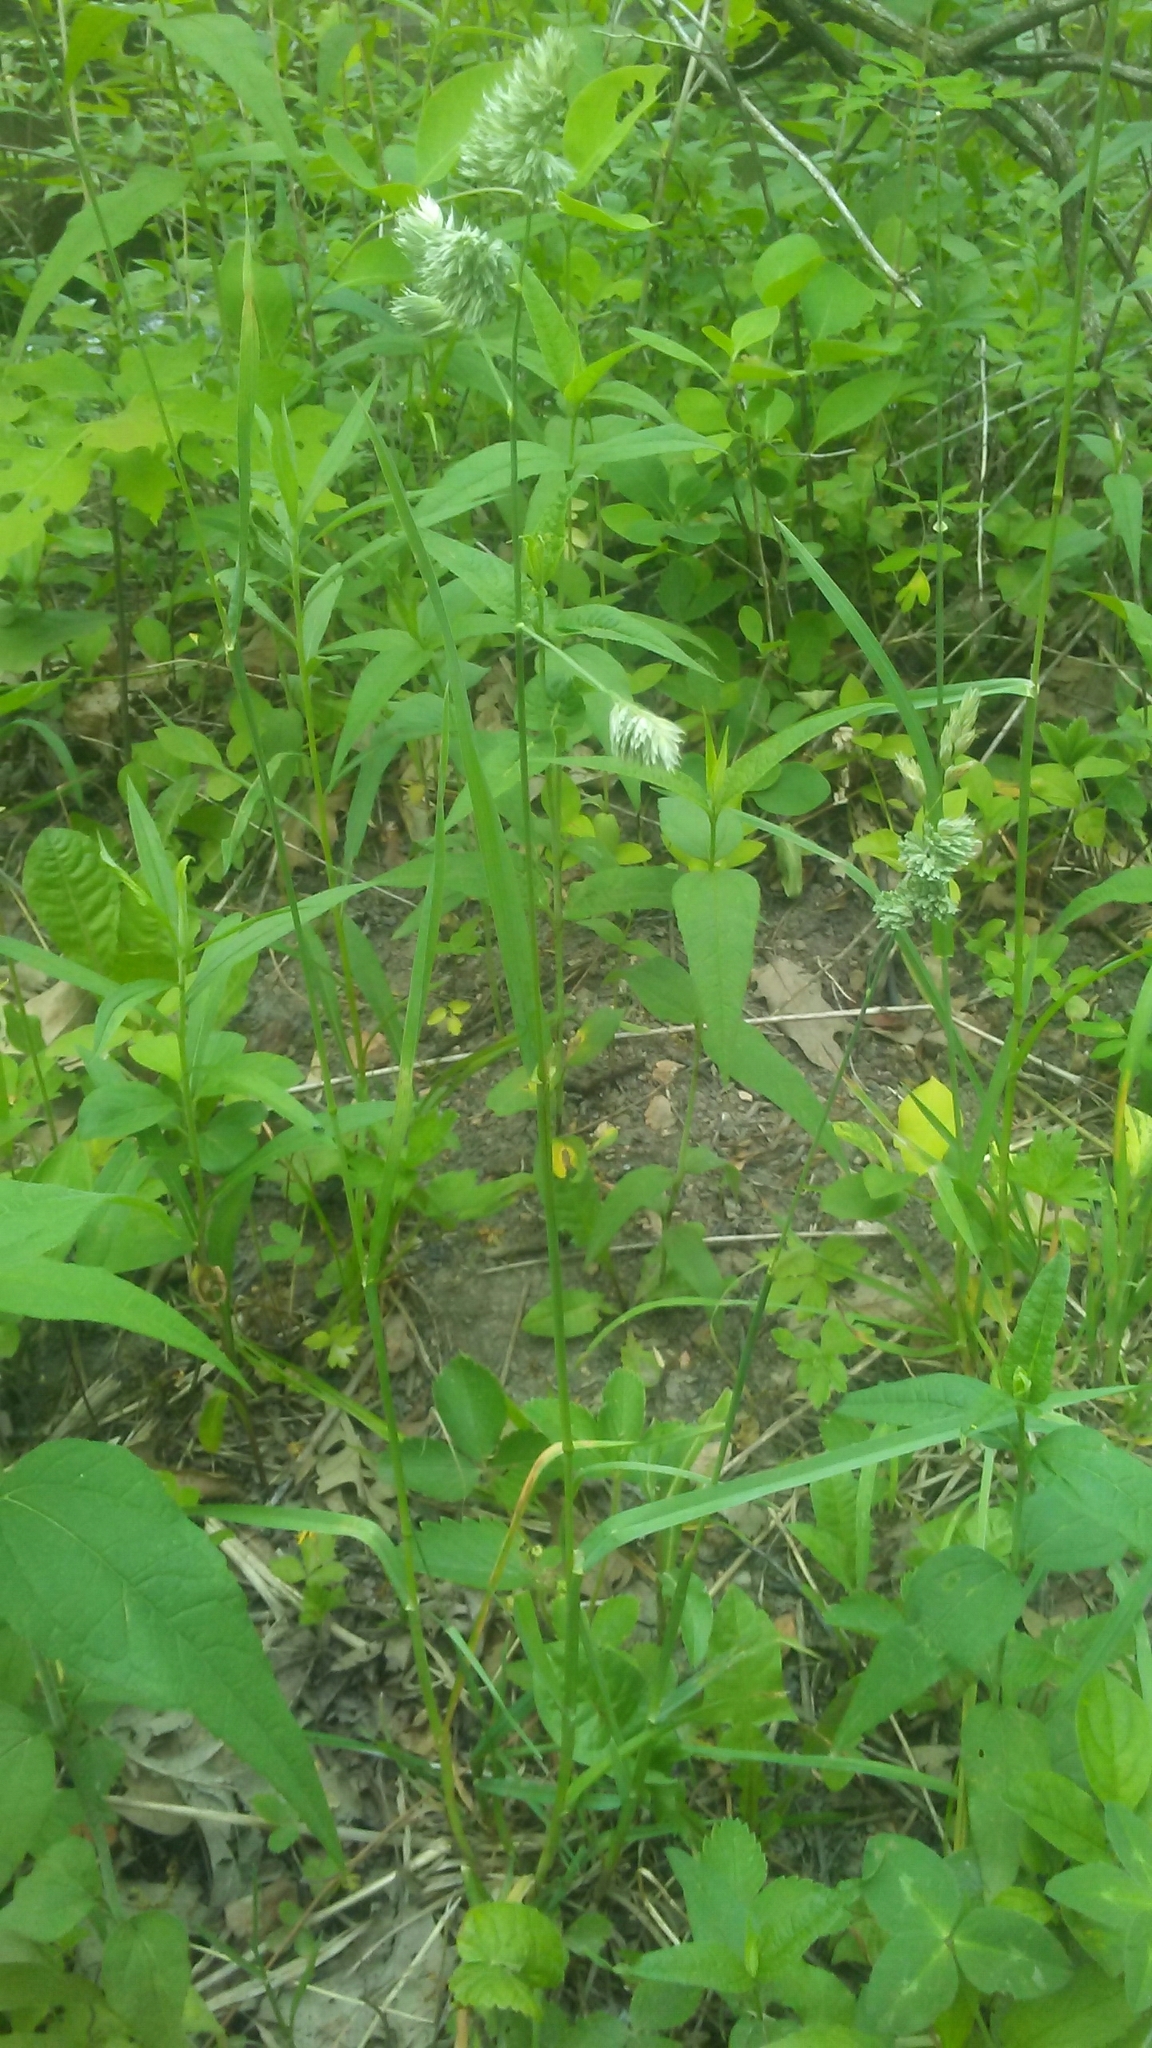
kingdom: Plantae
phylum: Tracheophyta
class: Liliopsida
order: Poales
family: Poaceae
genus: Dactylis
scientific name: Dactylis glomerata
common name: Orchardgrass
